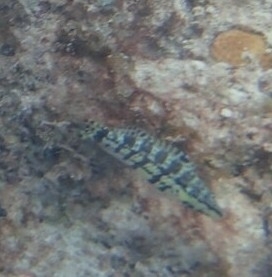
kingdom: Animalia
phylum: Chordata
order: Perciformes
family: Serranidae
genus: Serranus
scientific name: Serranus tigrinus
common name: Harlequin bass
